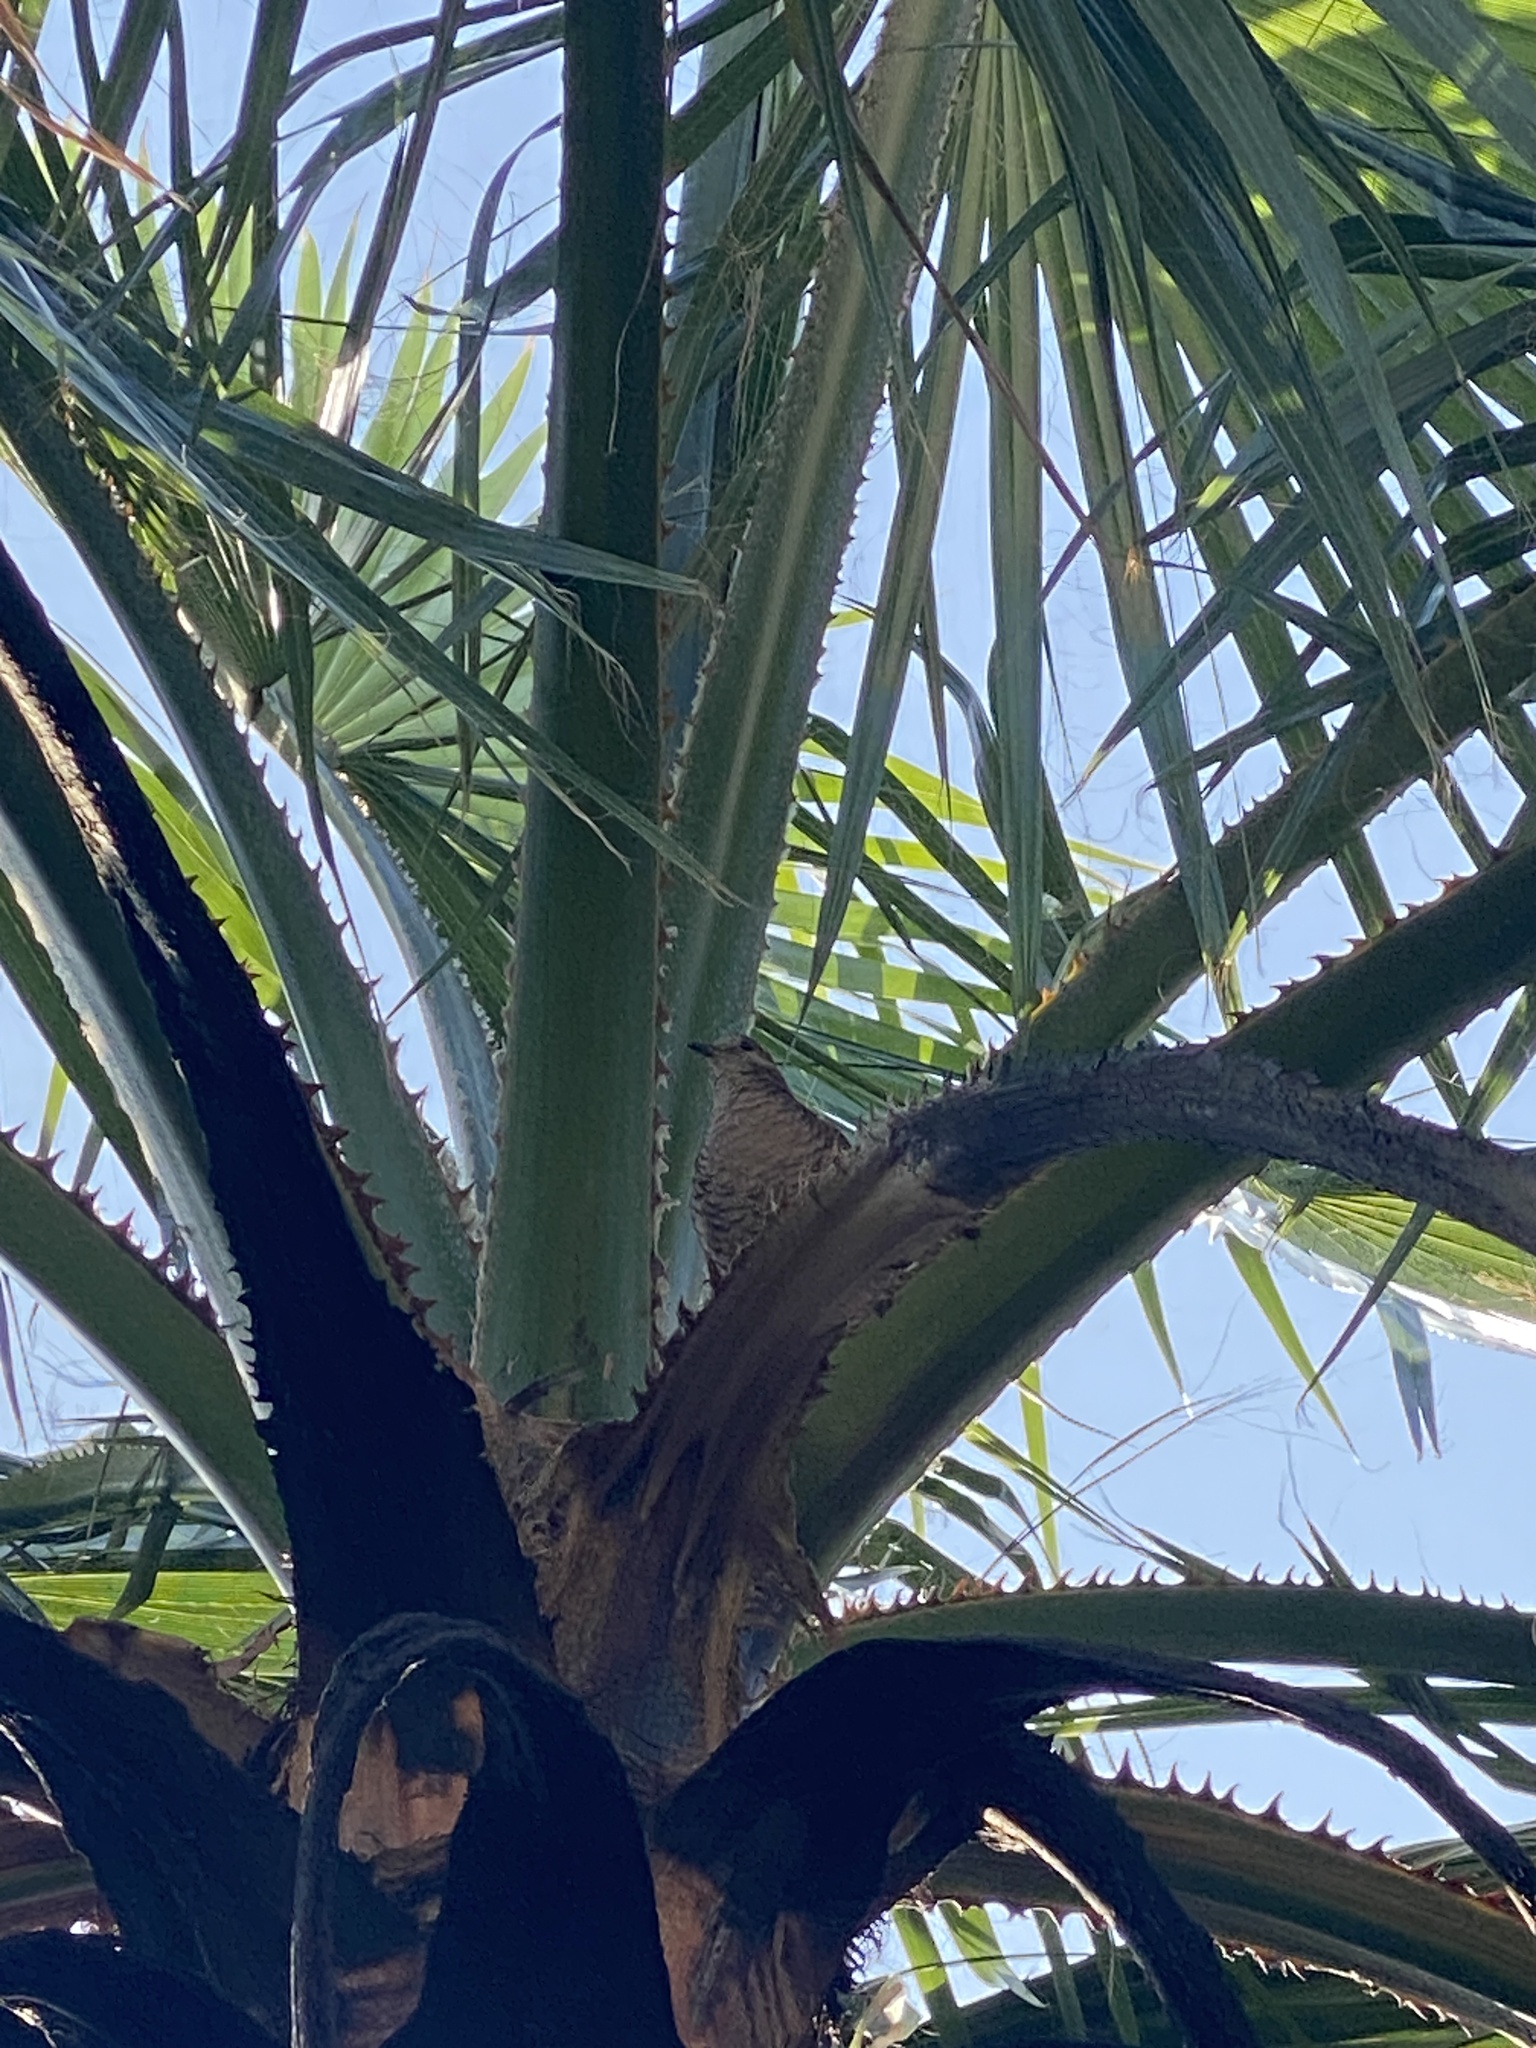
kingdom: Animalia
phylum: Chordata
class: Aves
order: Columbiformes
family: Columbidae
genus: Columbina
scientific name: Columbina inca
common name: Inca dove
